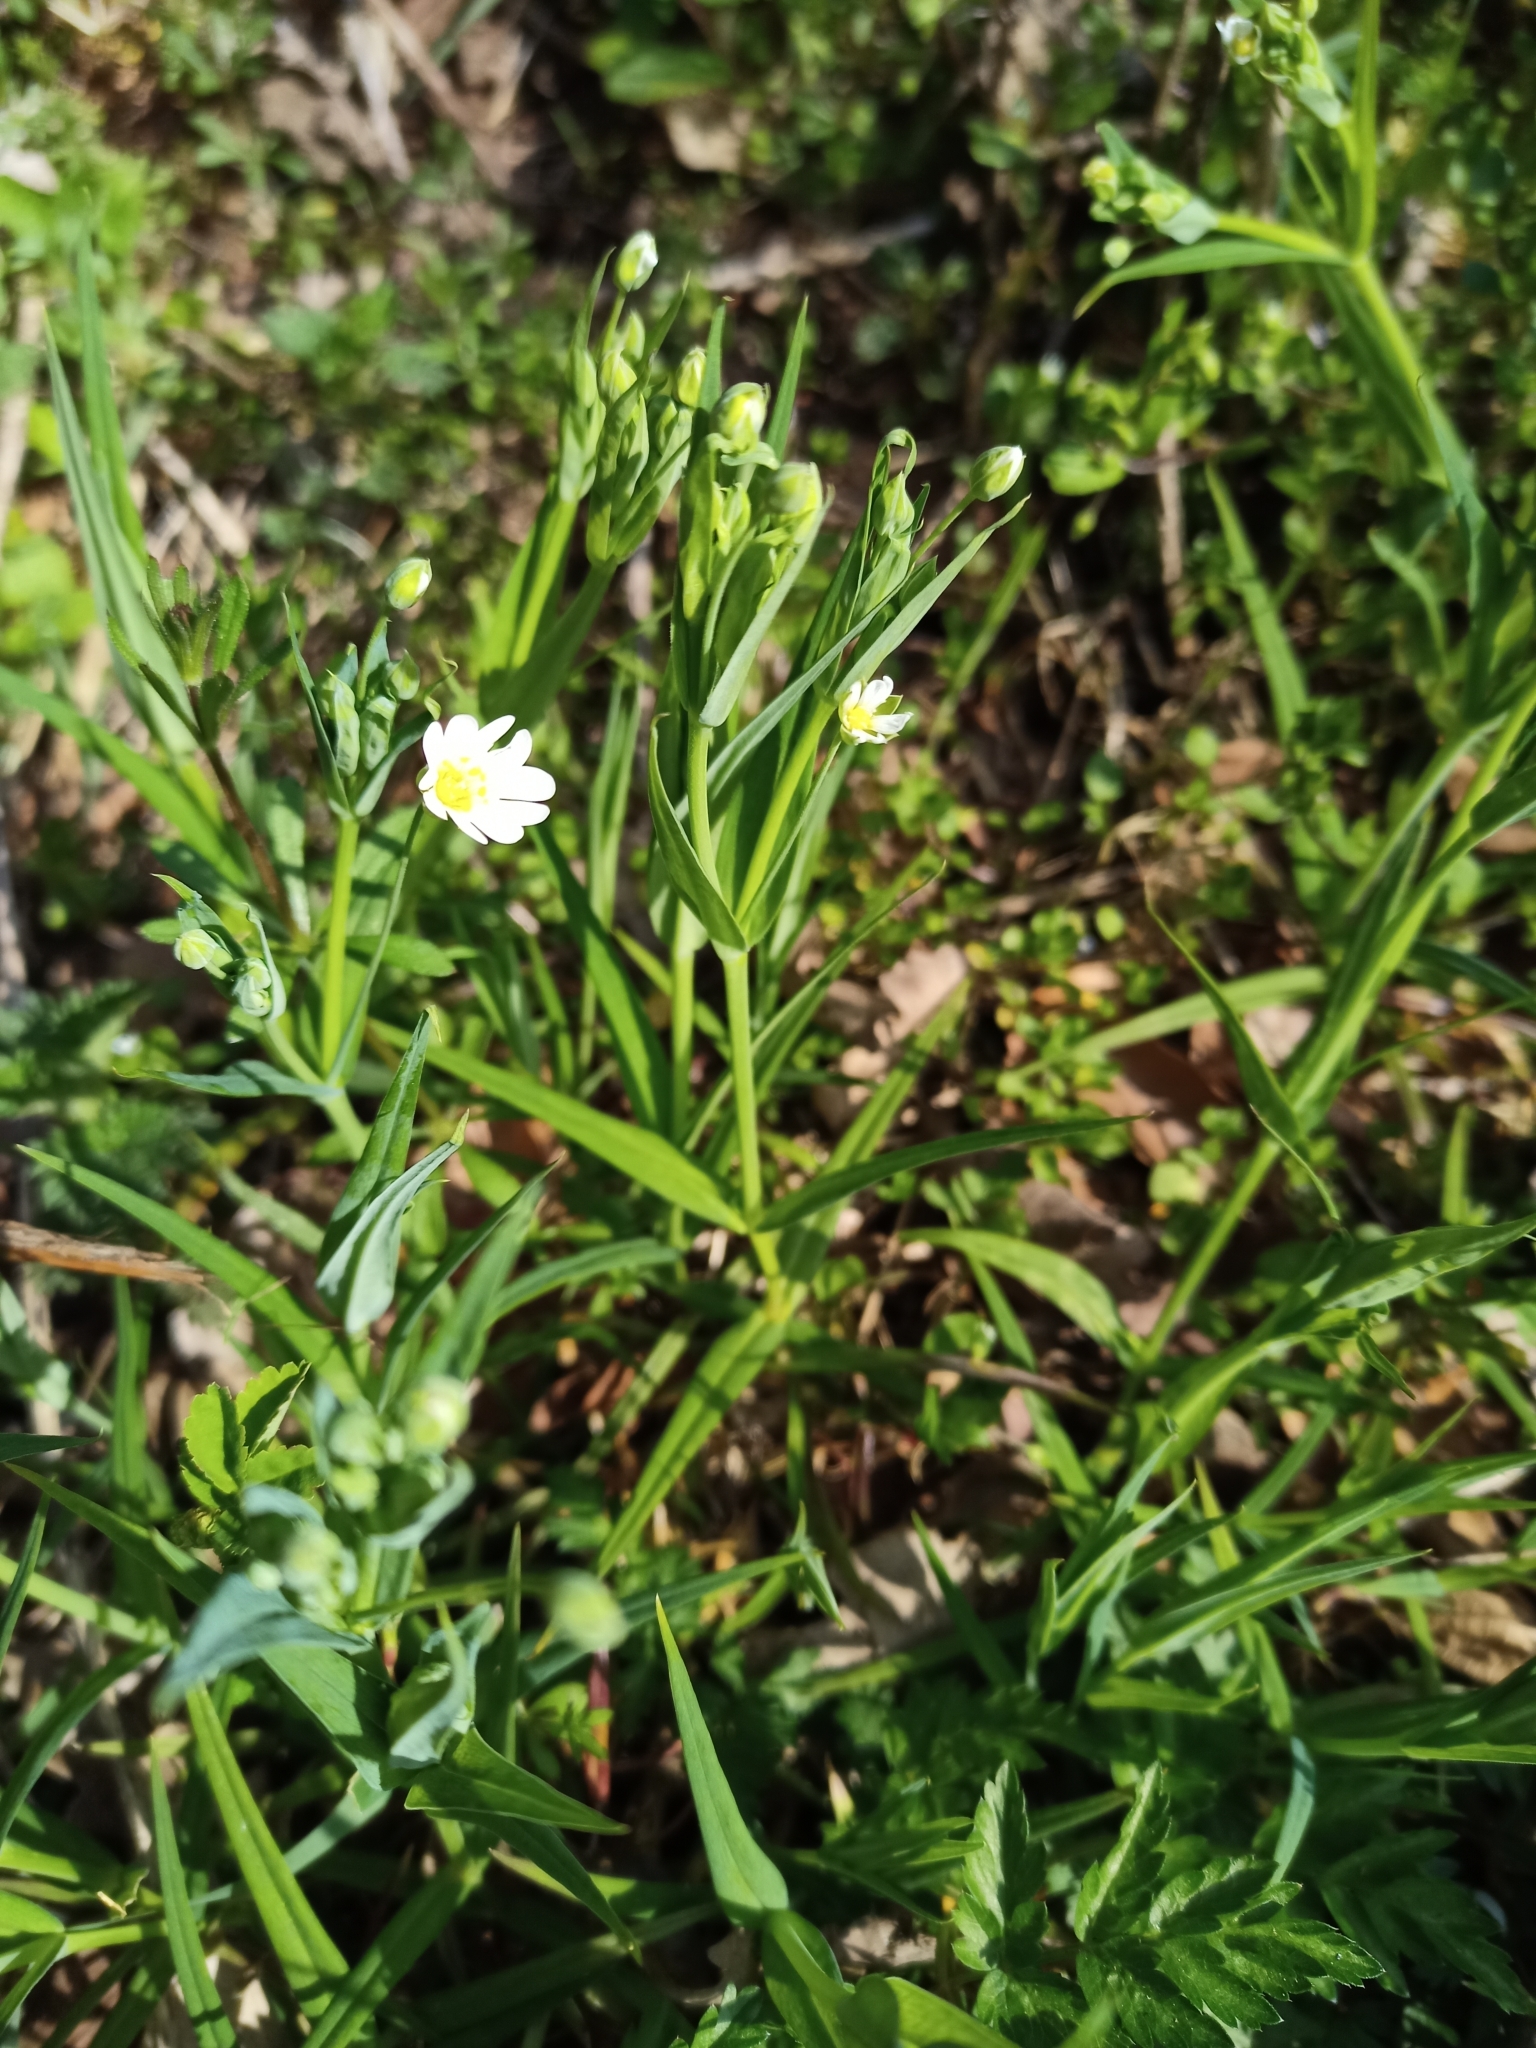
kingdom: Plantae
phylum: Tracheophyta
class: Magnoliopsida
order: Caryophyllales
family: Caryophyllaceae
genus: Rabelera
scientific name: Rabelera holostea
